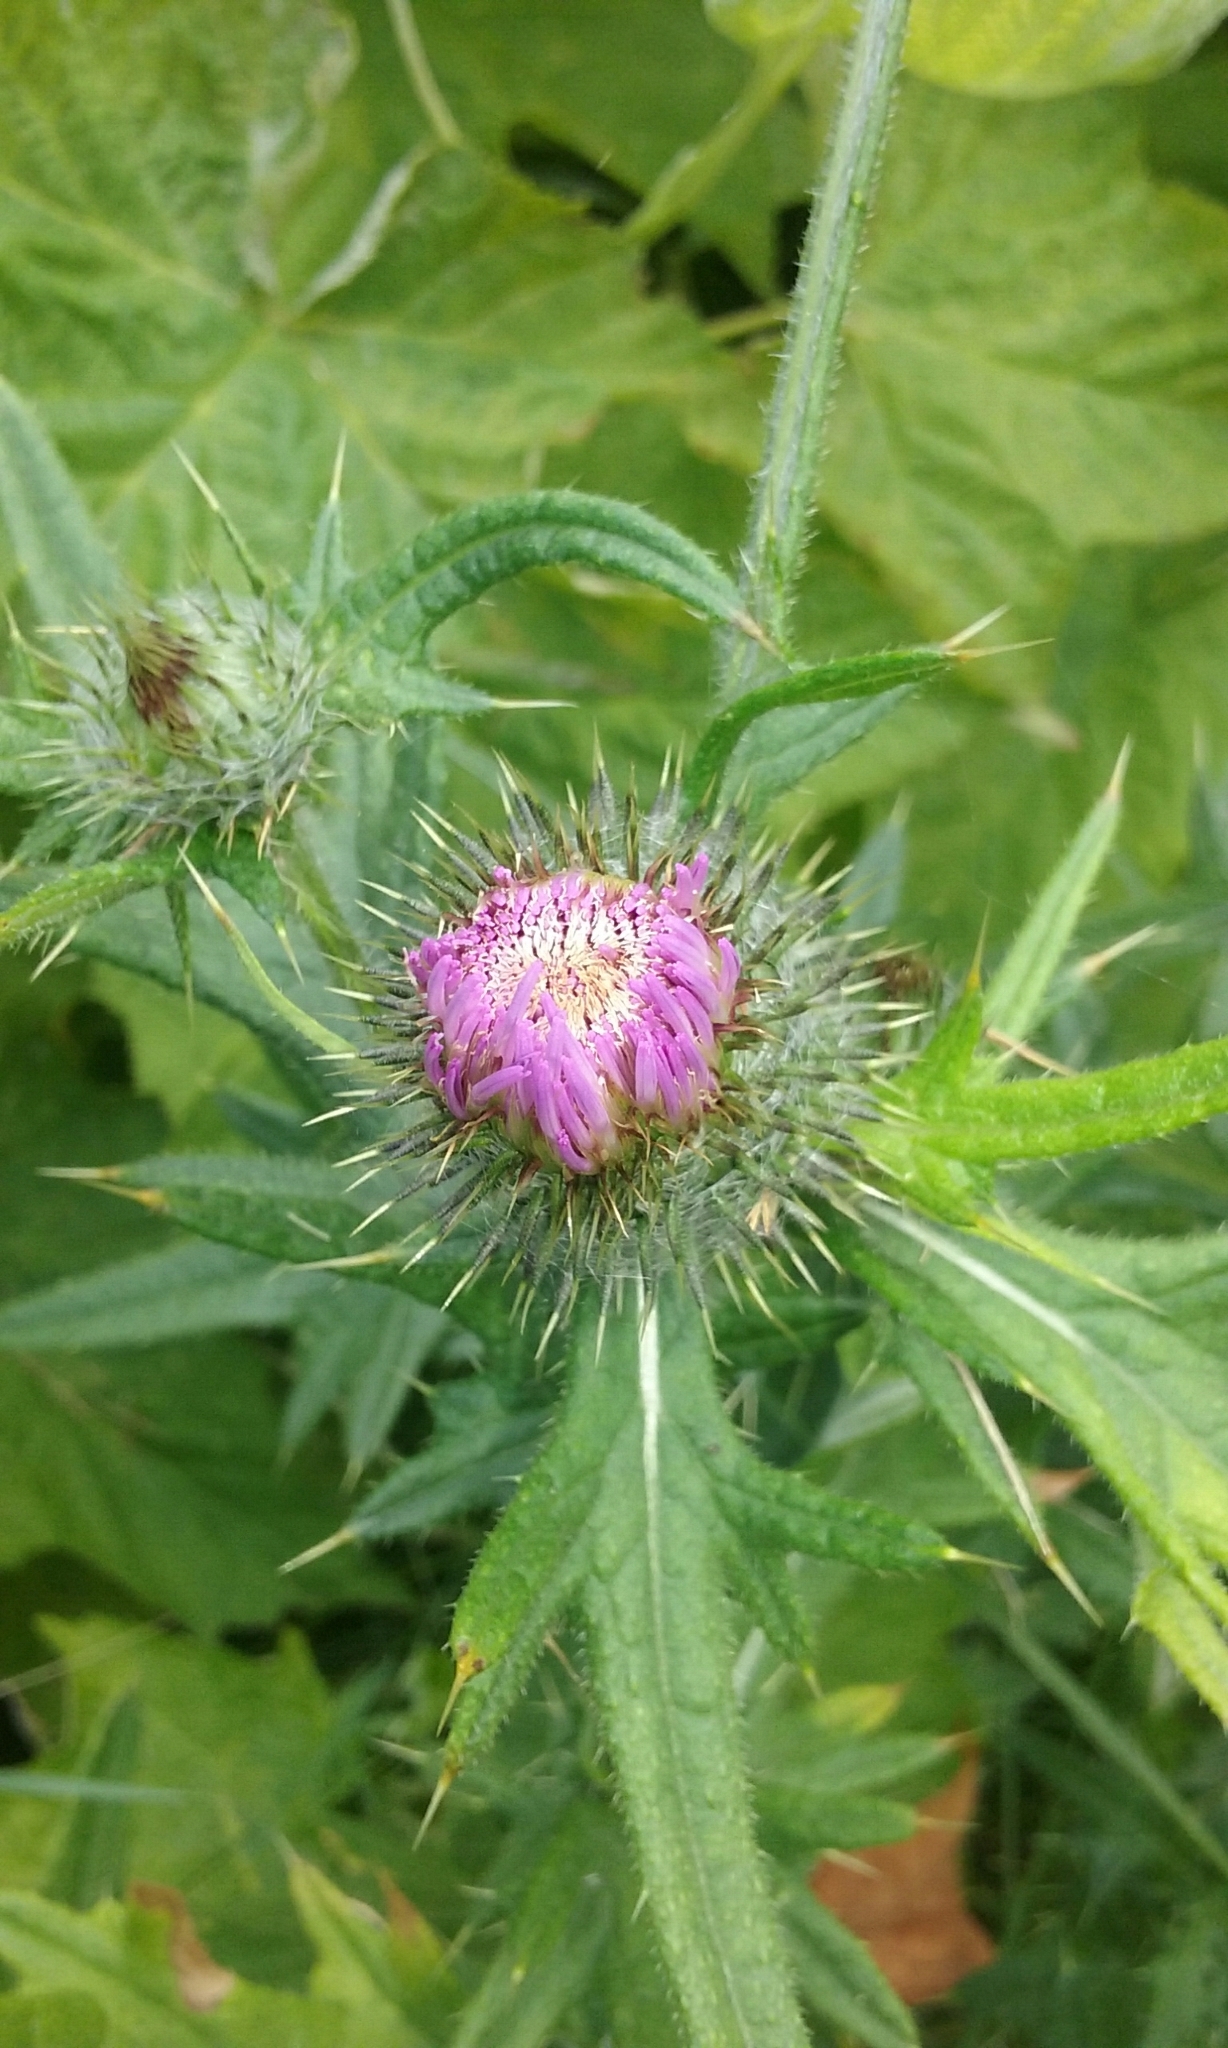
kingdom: Plantae
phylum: Tracheophyta
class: Magnoliopsida
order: Asterales
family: Asteraceae
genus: Cirsium
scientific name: Cirsium vulgare
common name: Bull thistle
